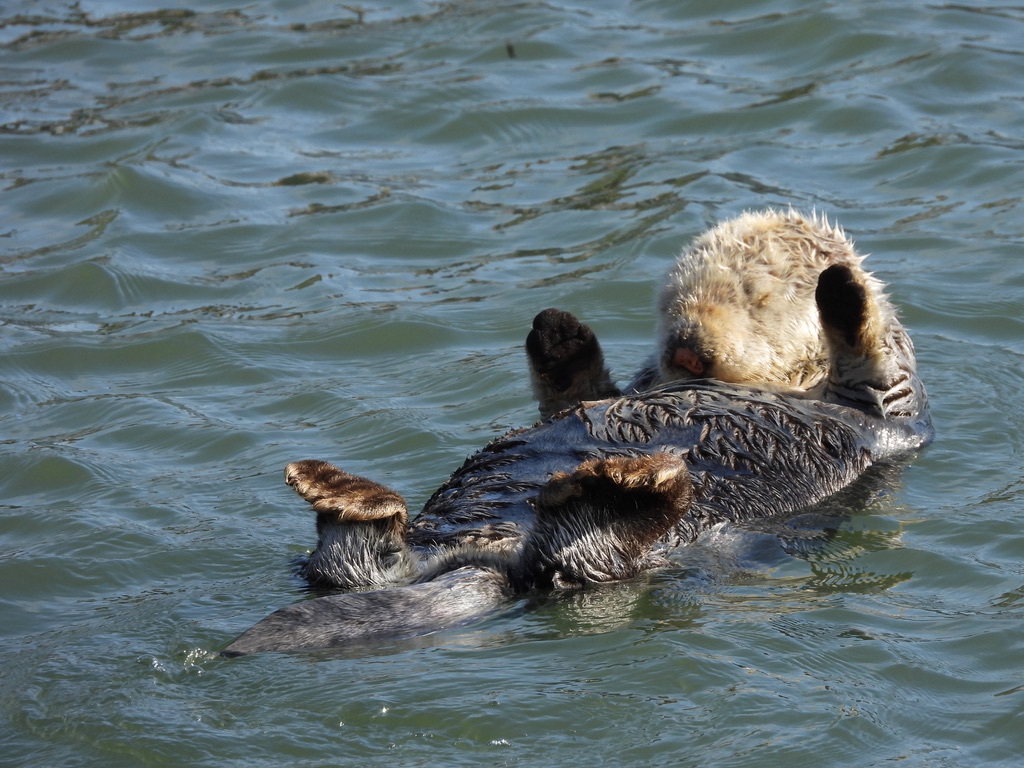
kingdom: Animalia
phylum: Chordata
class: Mammalia
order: Carnivora
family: Mustelidae
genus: Enhydra
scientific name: Enhydra lutris
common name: Sea otter
